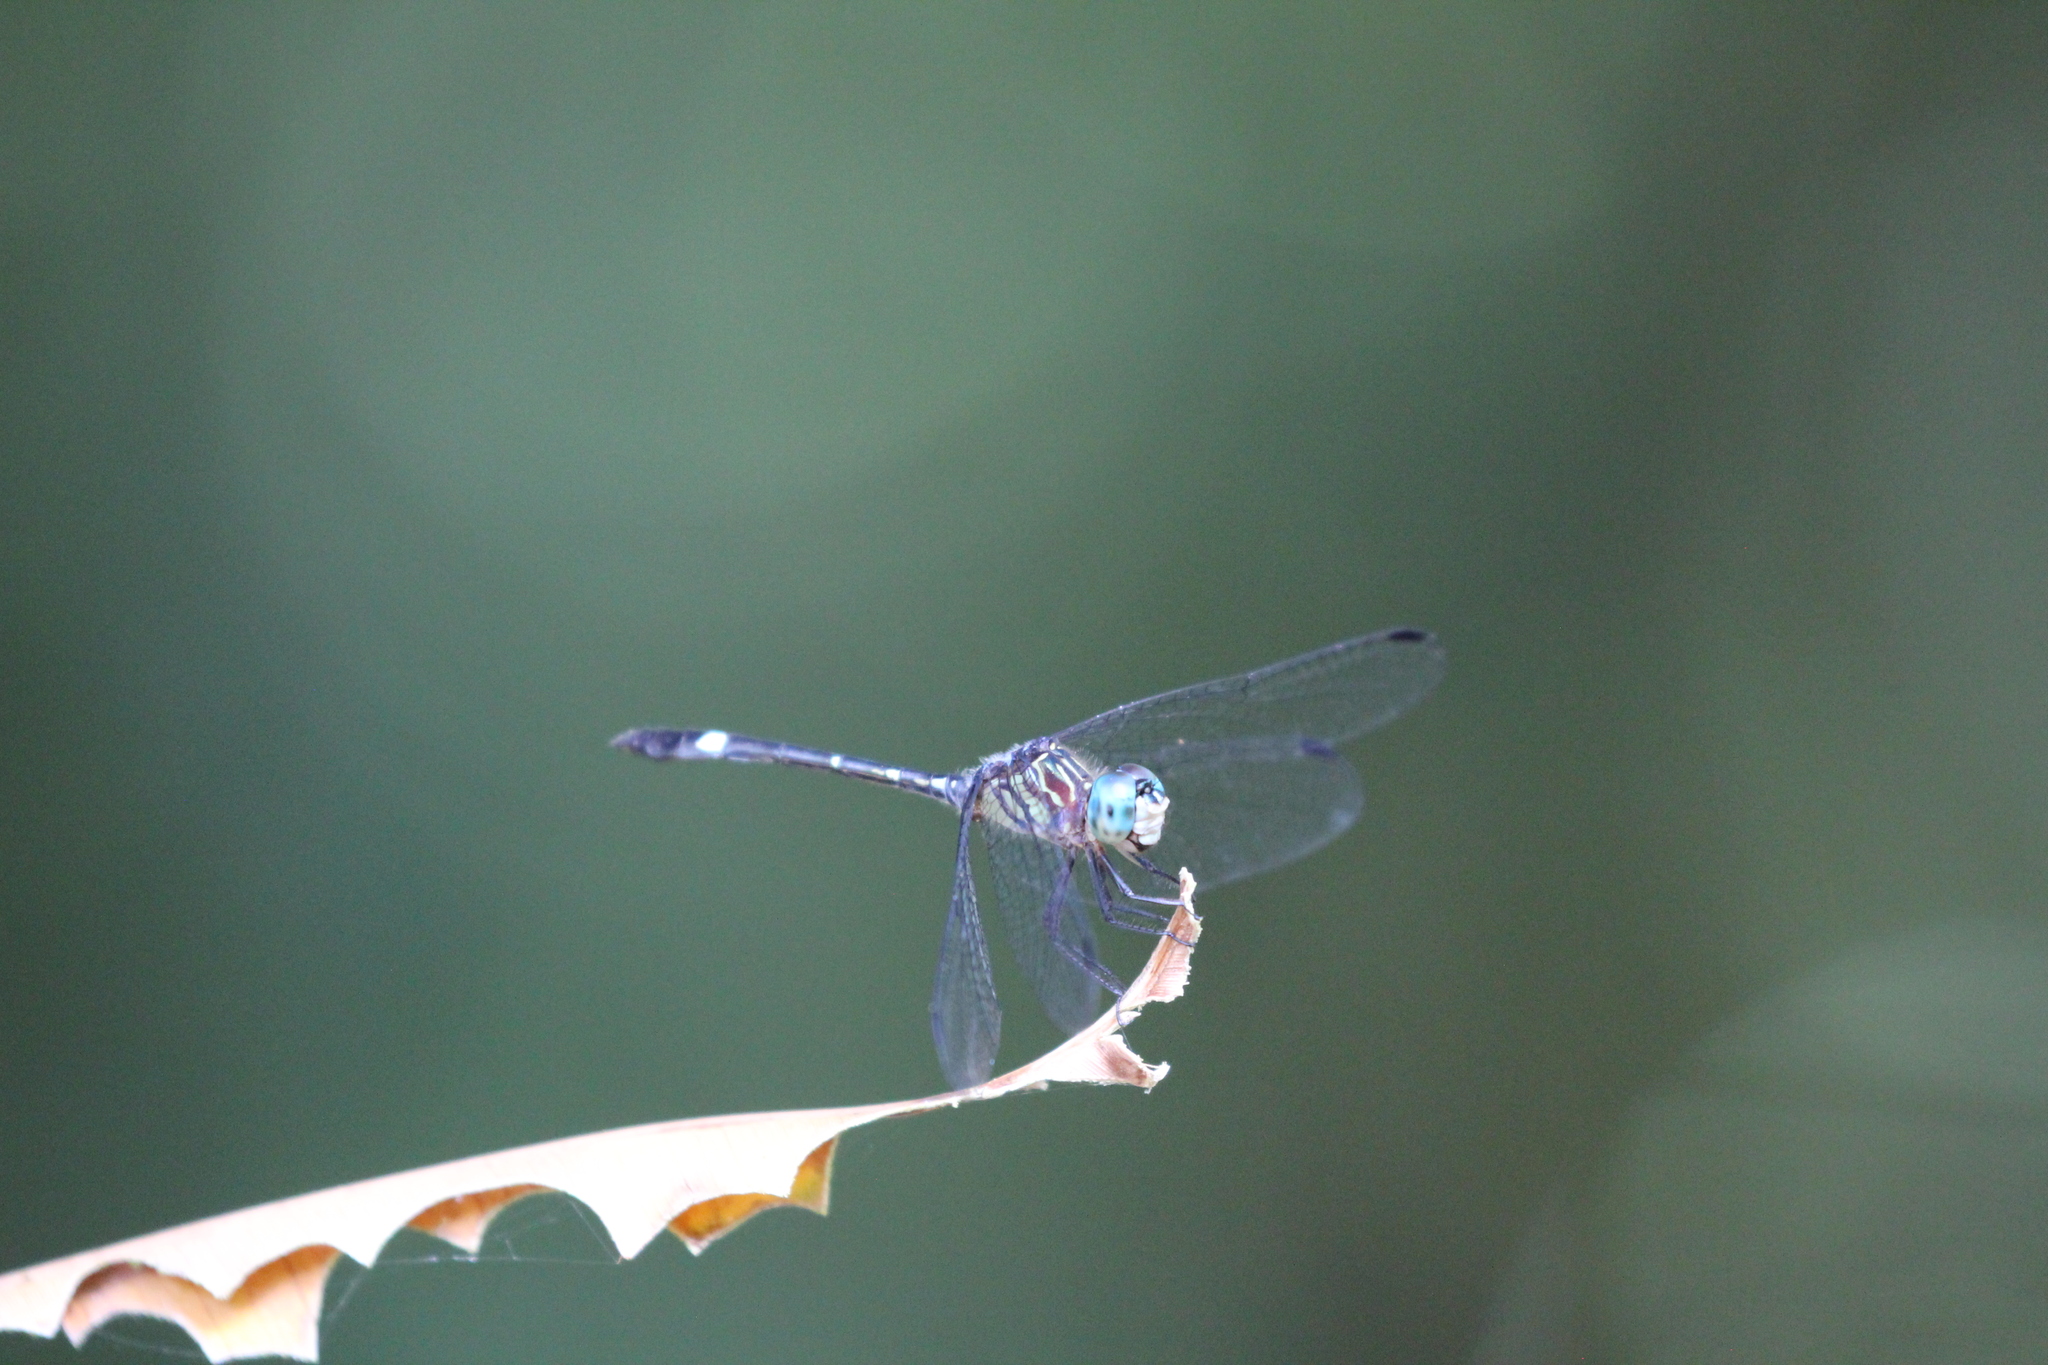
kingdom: Animalia
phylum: Arthropoda
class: Insecta
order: Odonata
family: Libellulidae
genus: Micrathyria
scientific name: Micrathyria didyma
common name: Three-striped dasher
